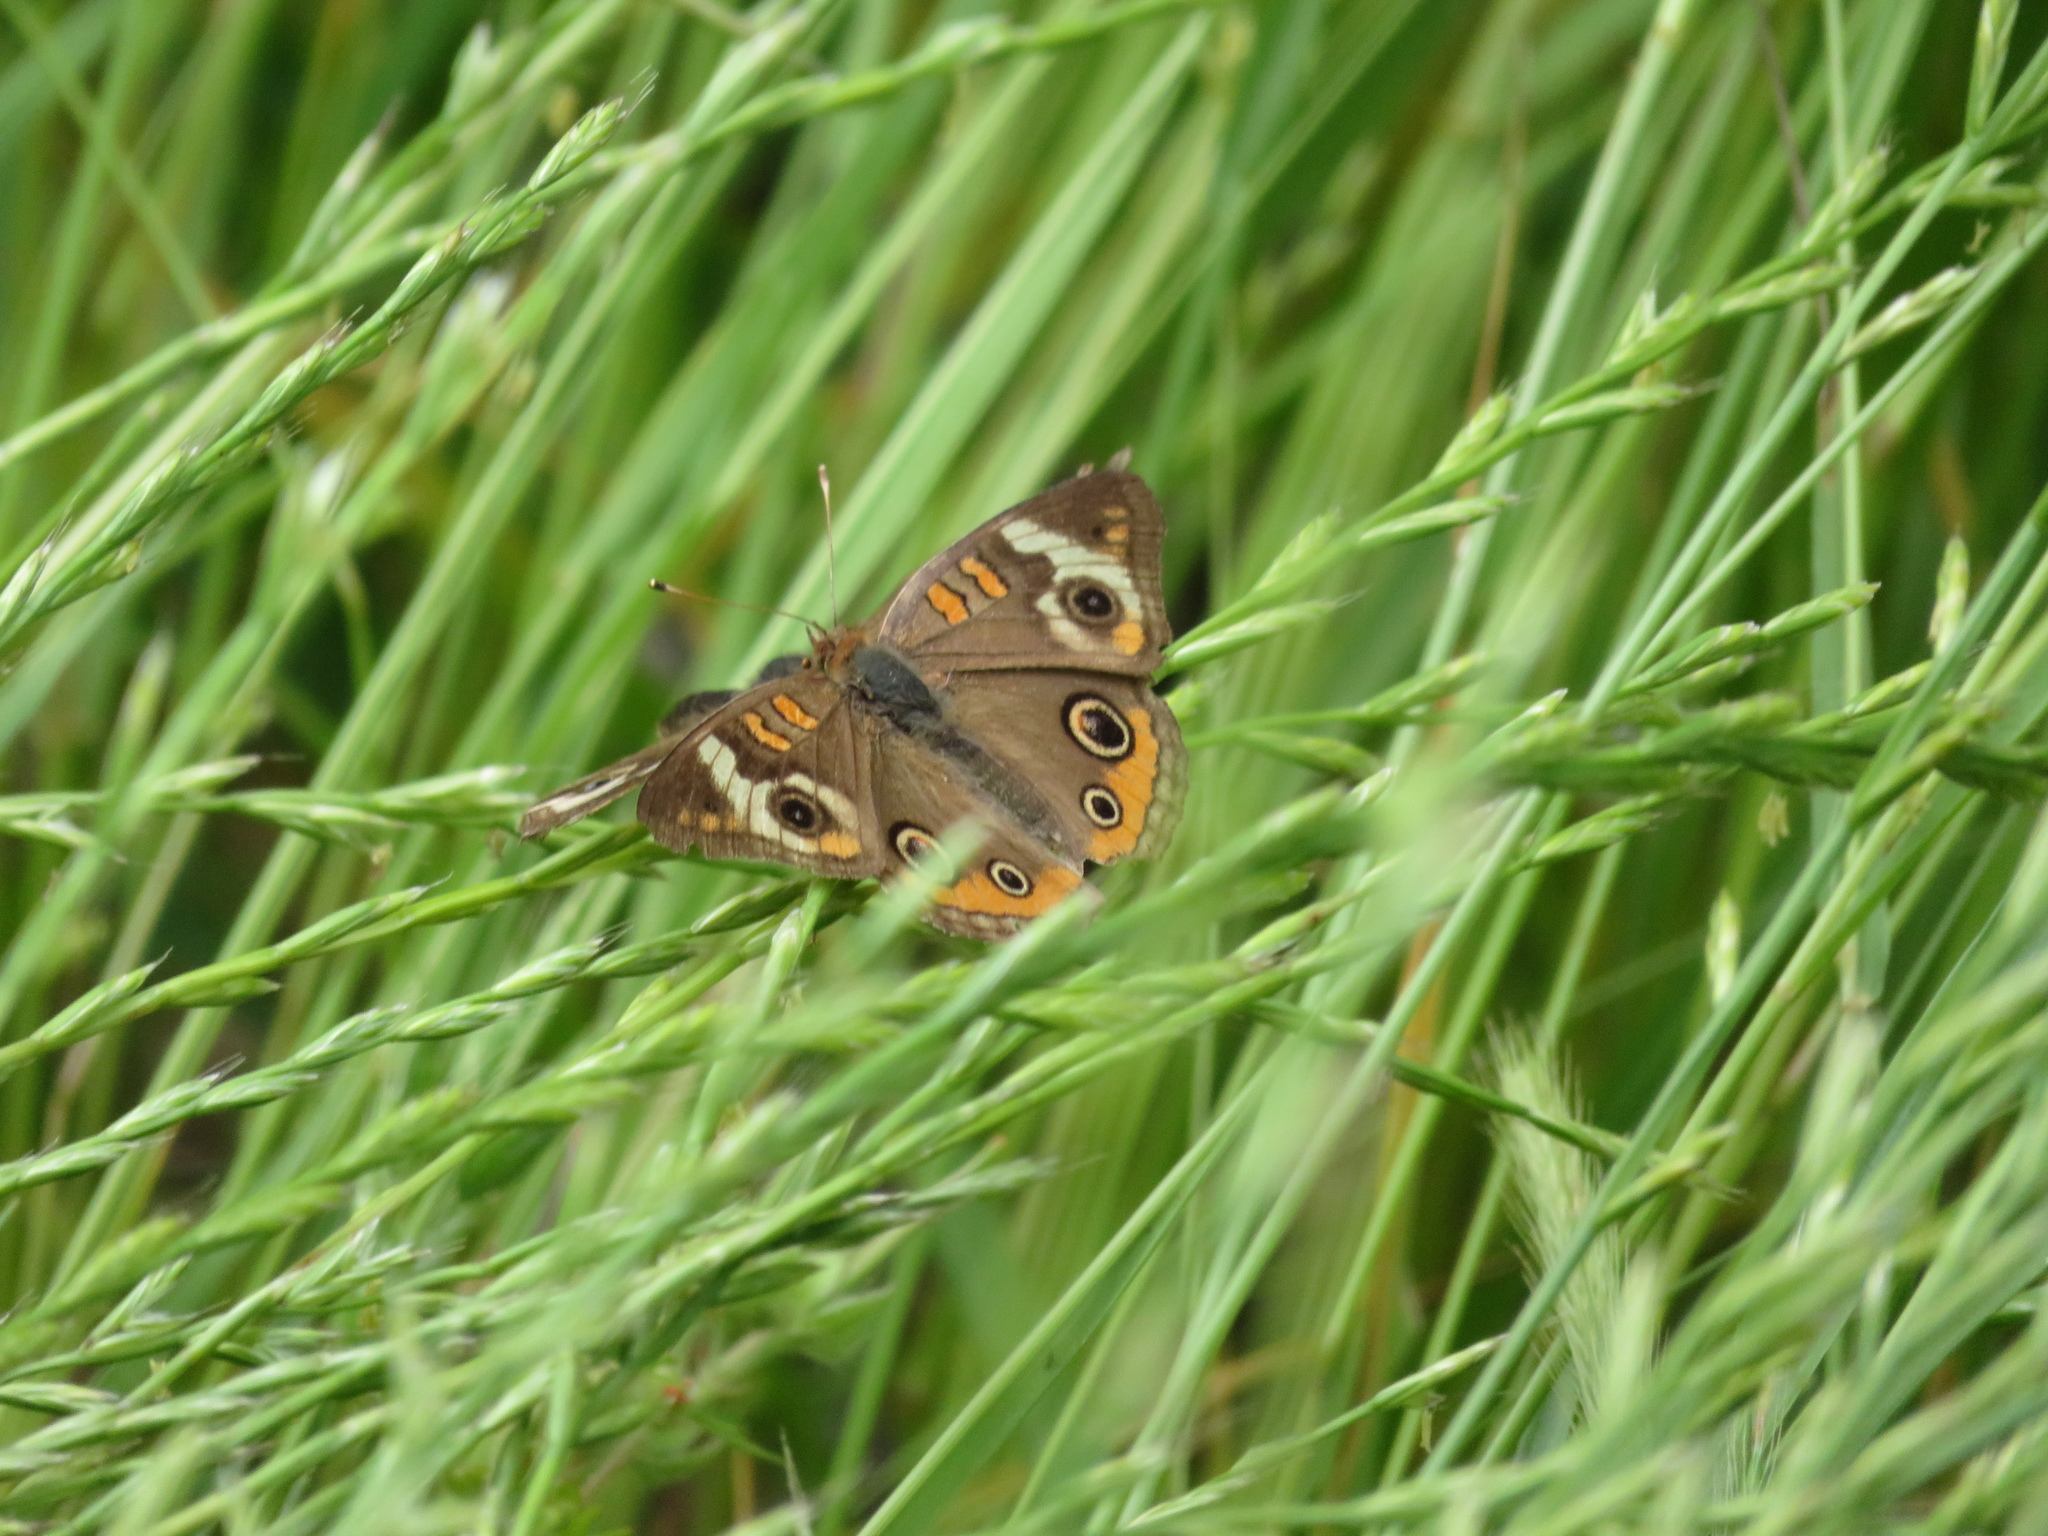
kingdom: Animalia
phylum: Arthropoda
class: Insecta
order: Lepidoptera
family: Nymphalidae
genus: Junonia
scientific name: Junonia coenia
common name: Common buckeye
